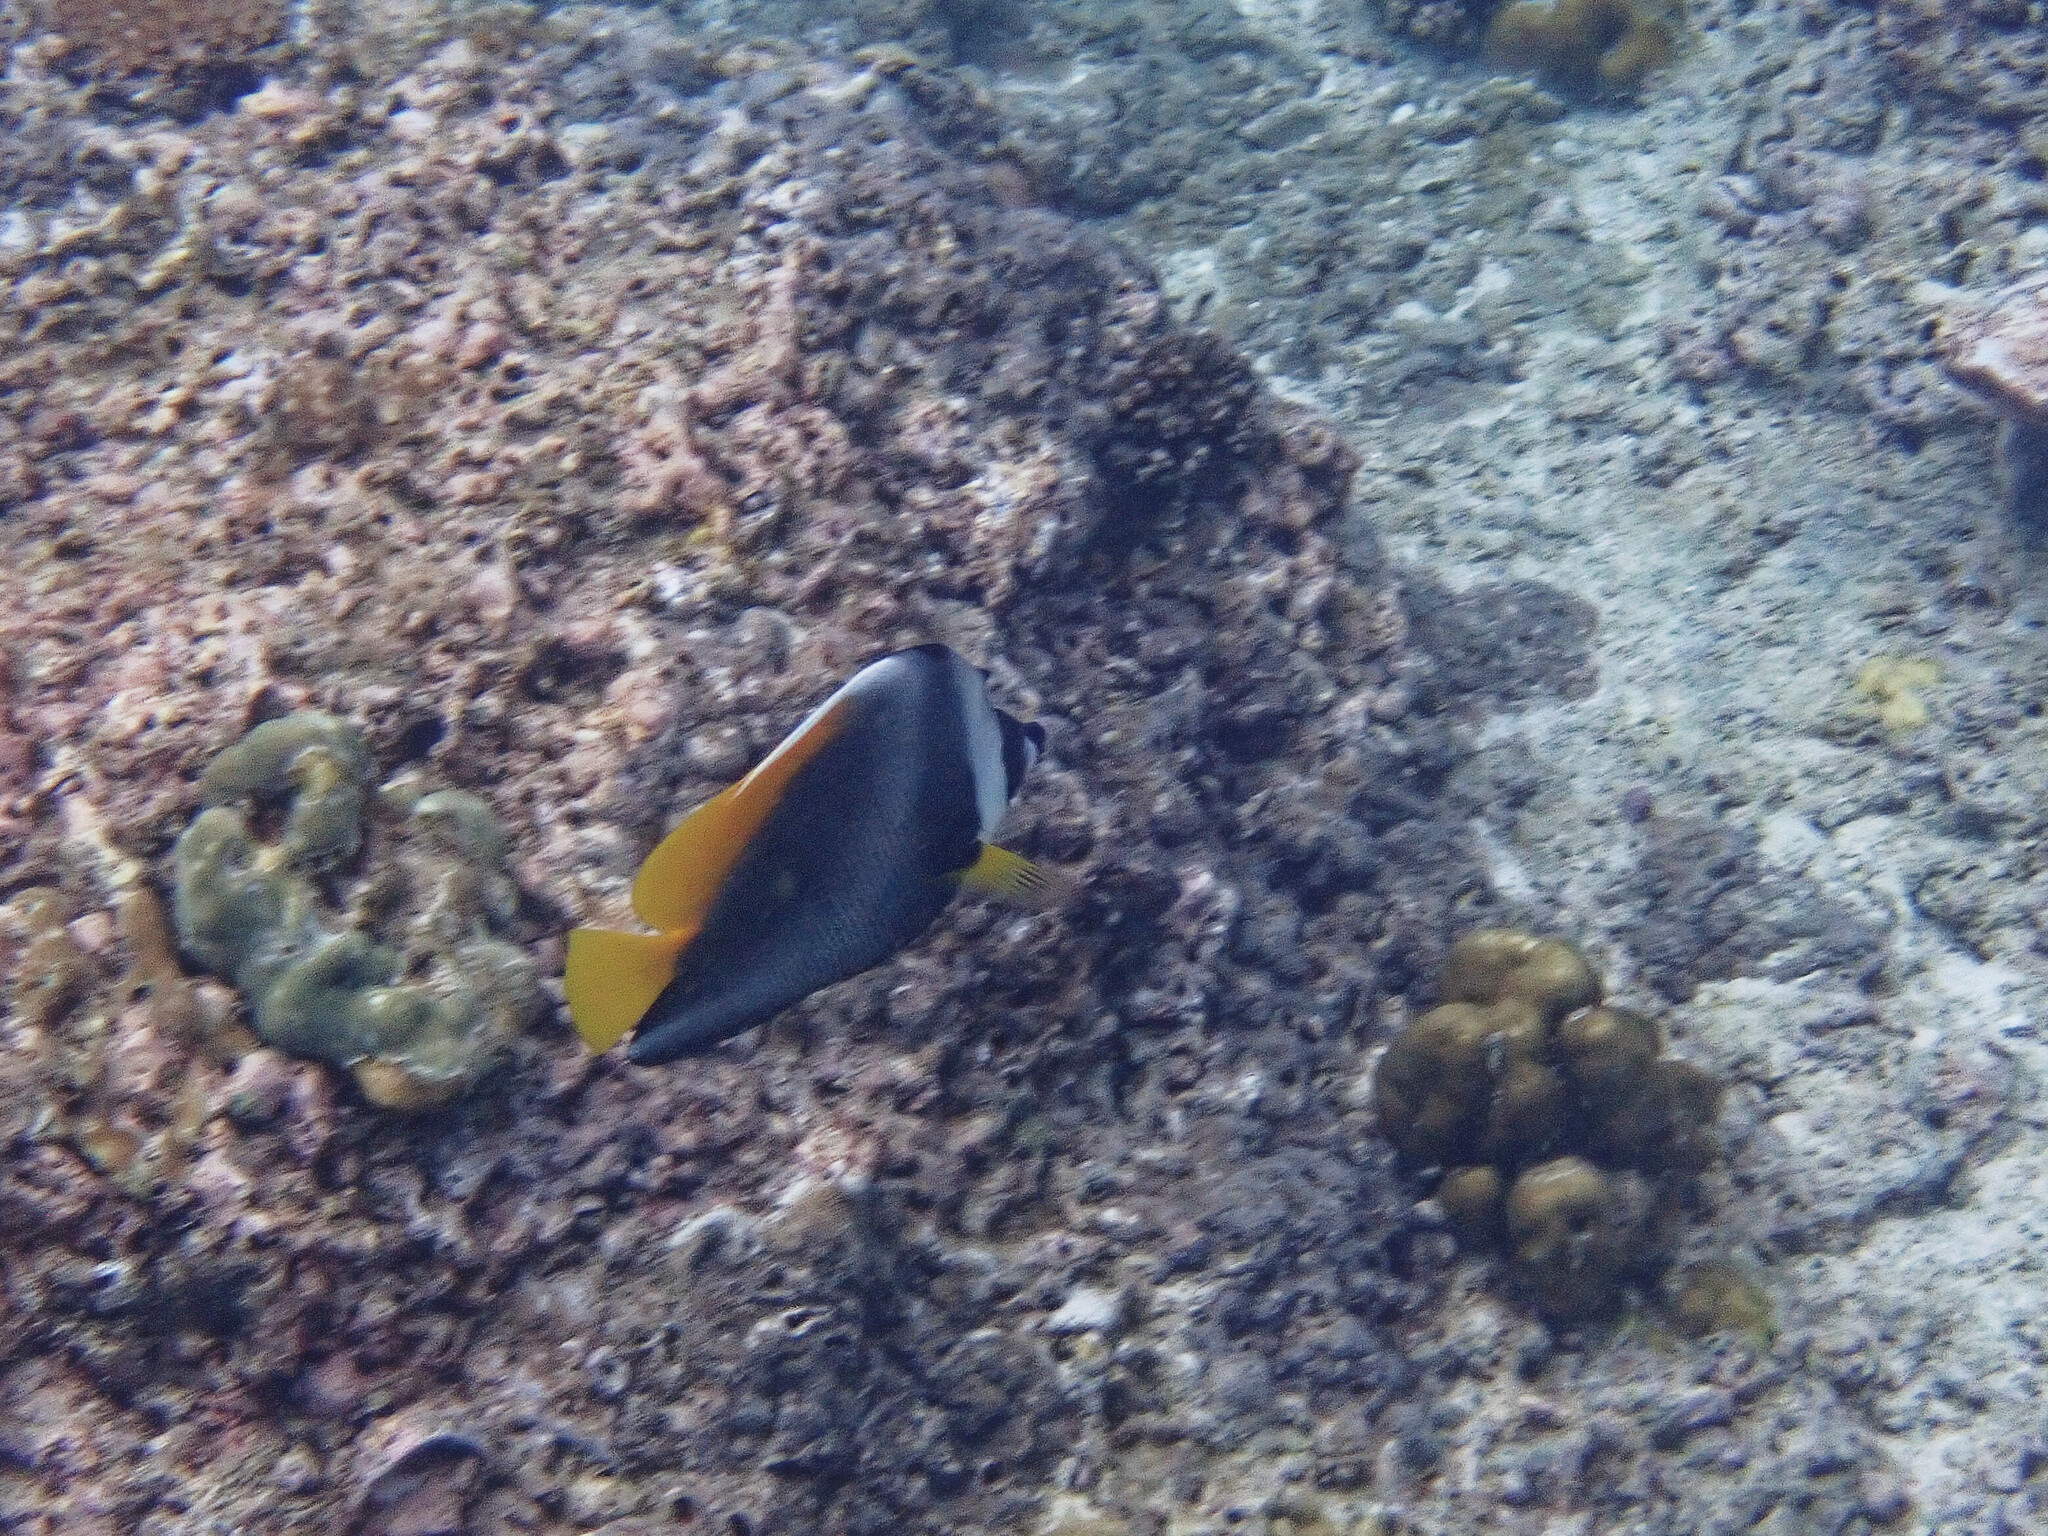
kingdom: Animalia
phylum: Chordata
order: Perciformes
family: Chaetodontidae
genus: Heniochus
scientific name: Heniochus singularius
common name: Singular bannerfish
